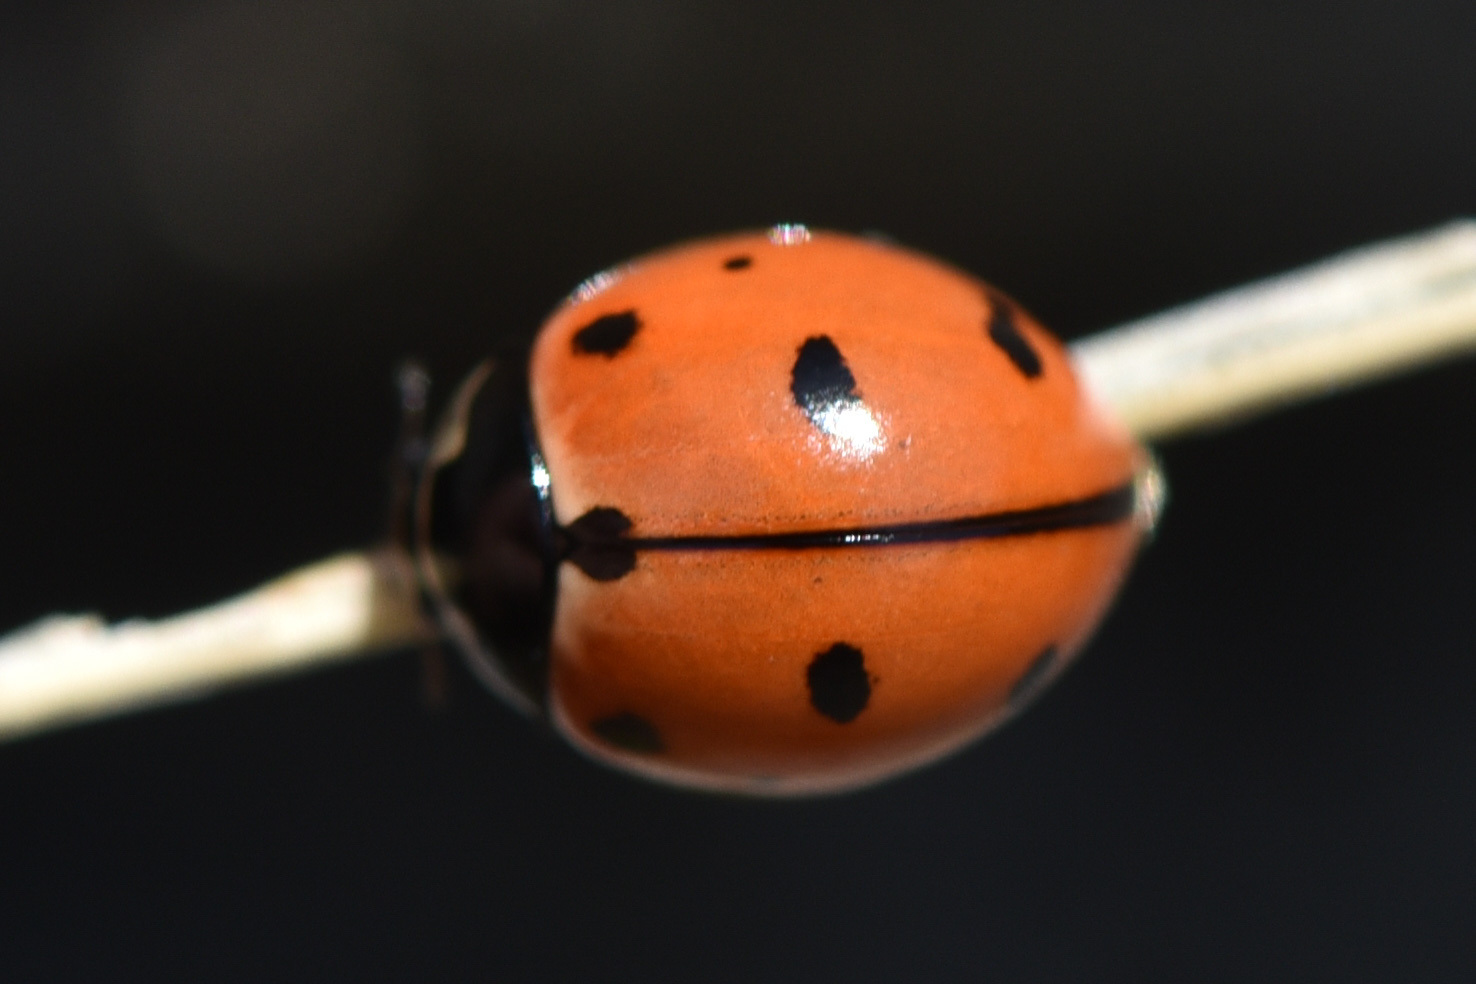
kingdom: Animalia
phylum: Arthropoda
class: Insecta
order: Coleoptera
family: Coccinellidae
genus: Coccinella
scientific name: Coccinella novemnotata
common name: Nine-spotted lady beetle
